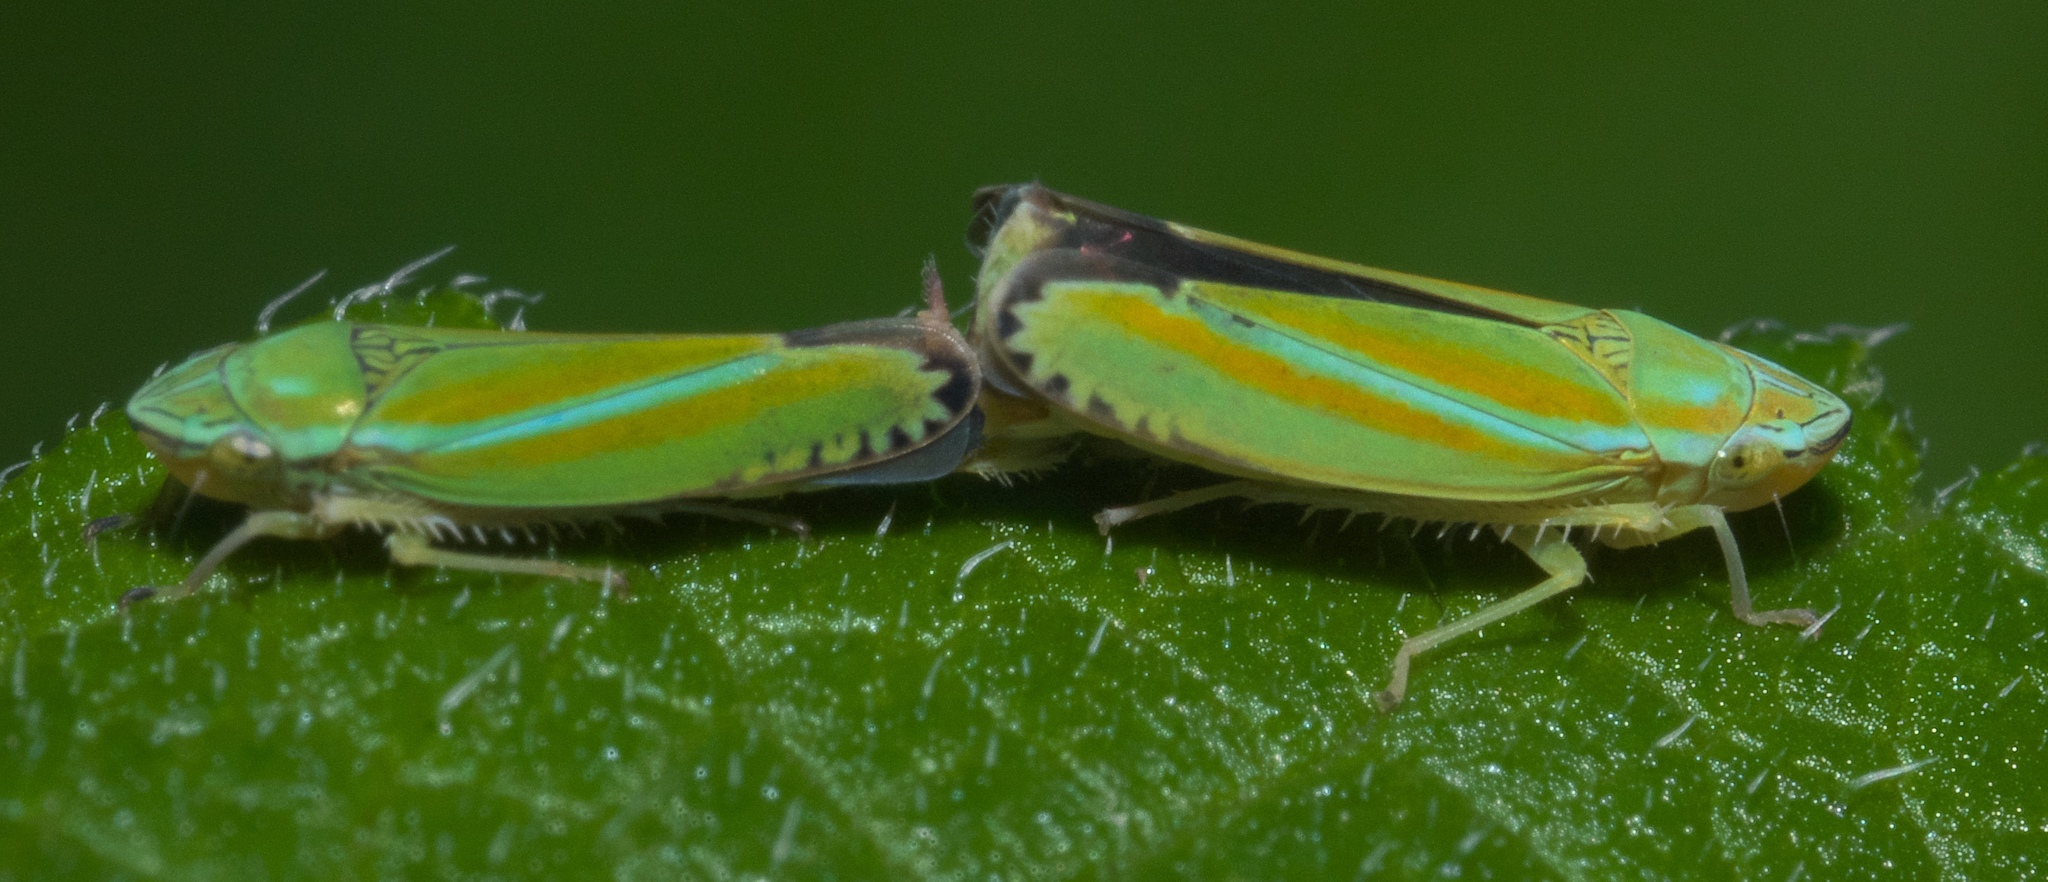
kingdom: Animalia
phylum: Arthropoda
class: Insecta
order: Hemiptera
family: Cicadellidae
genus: Graphocephala
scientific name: Graphocephala versuta
